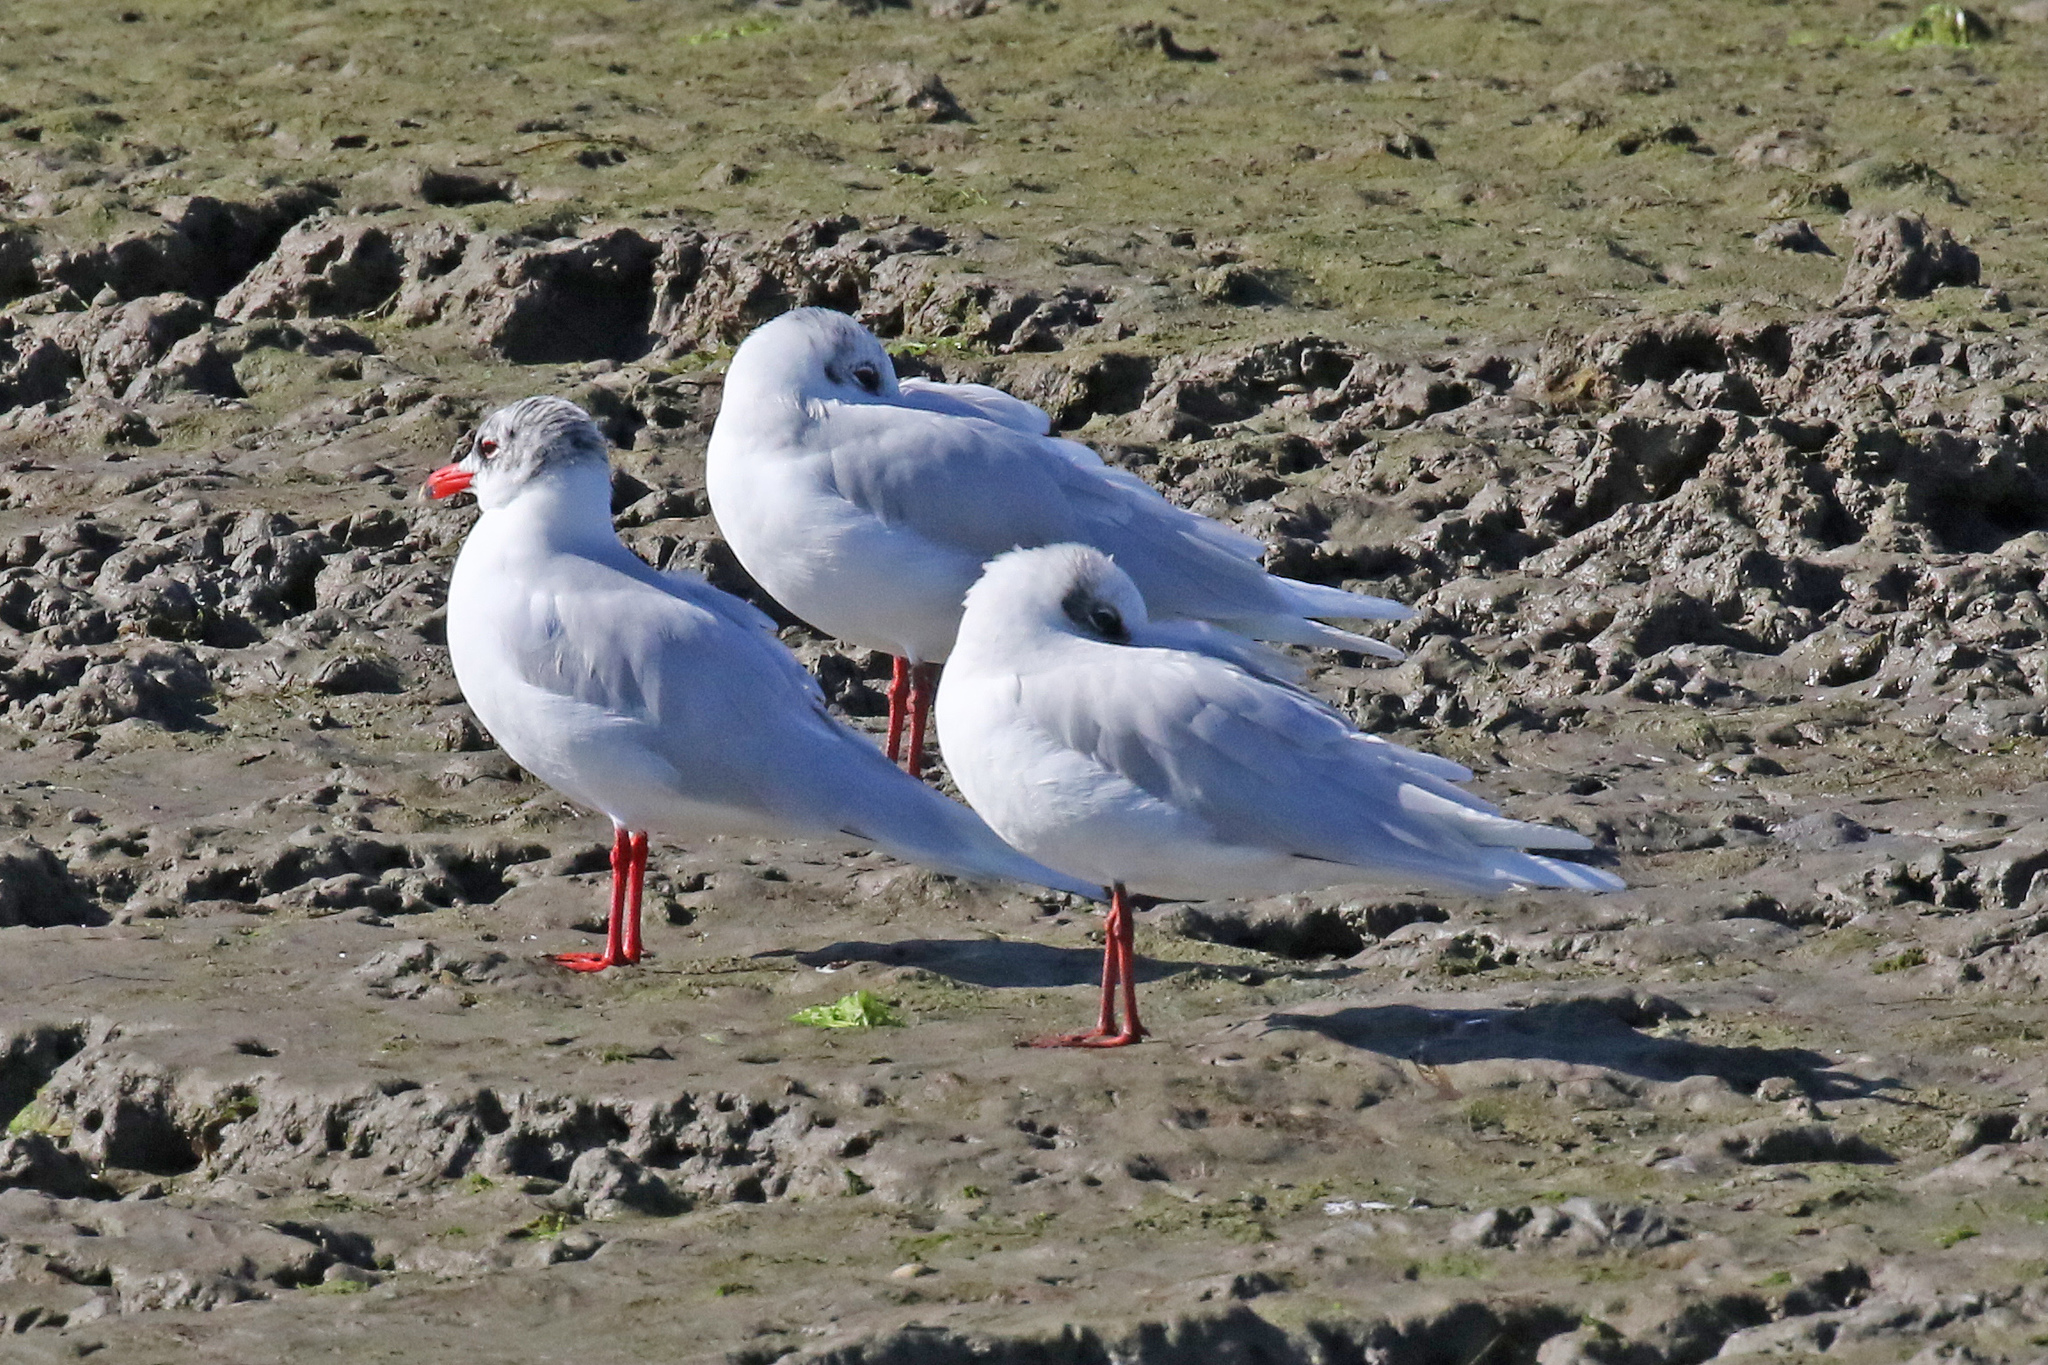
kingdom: Animalia
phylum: Chordata
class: Aves
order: Charadriiformes
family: Laridae
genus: Ichthyaetus
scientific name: Ichthyaetus melanocephalus
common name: Mediterranean gull
